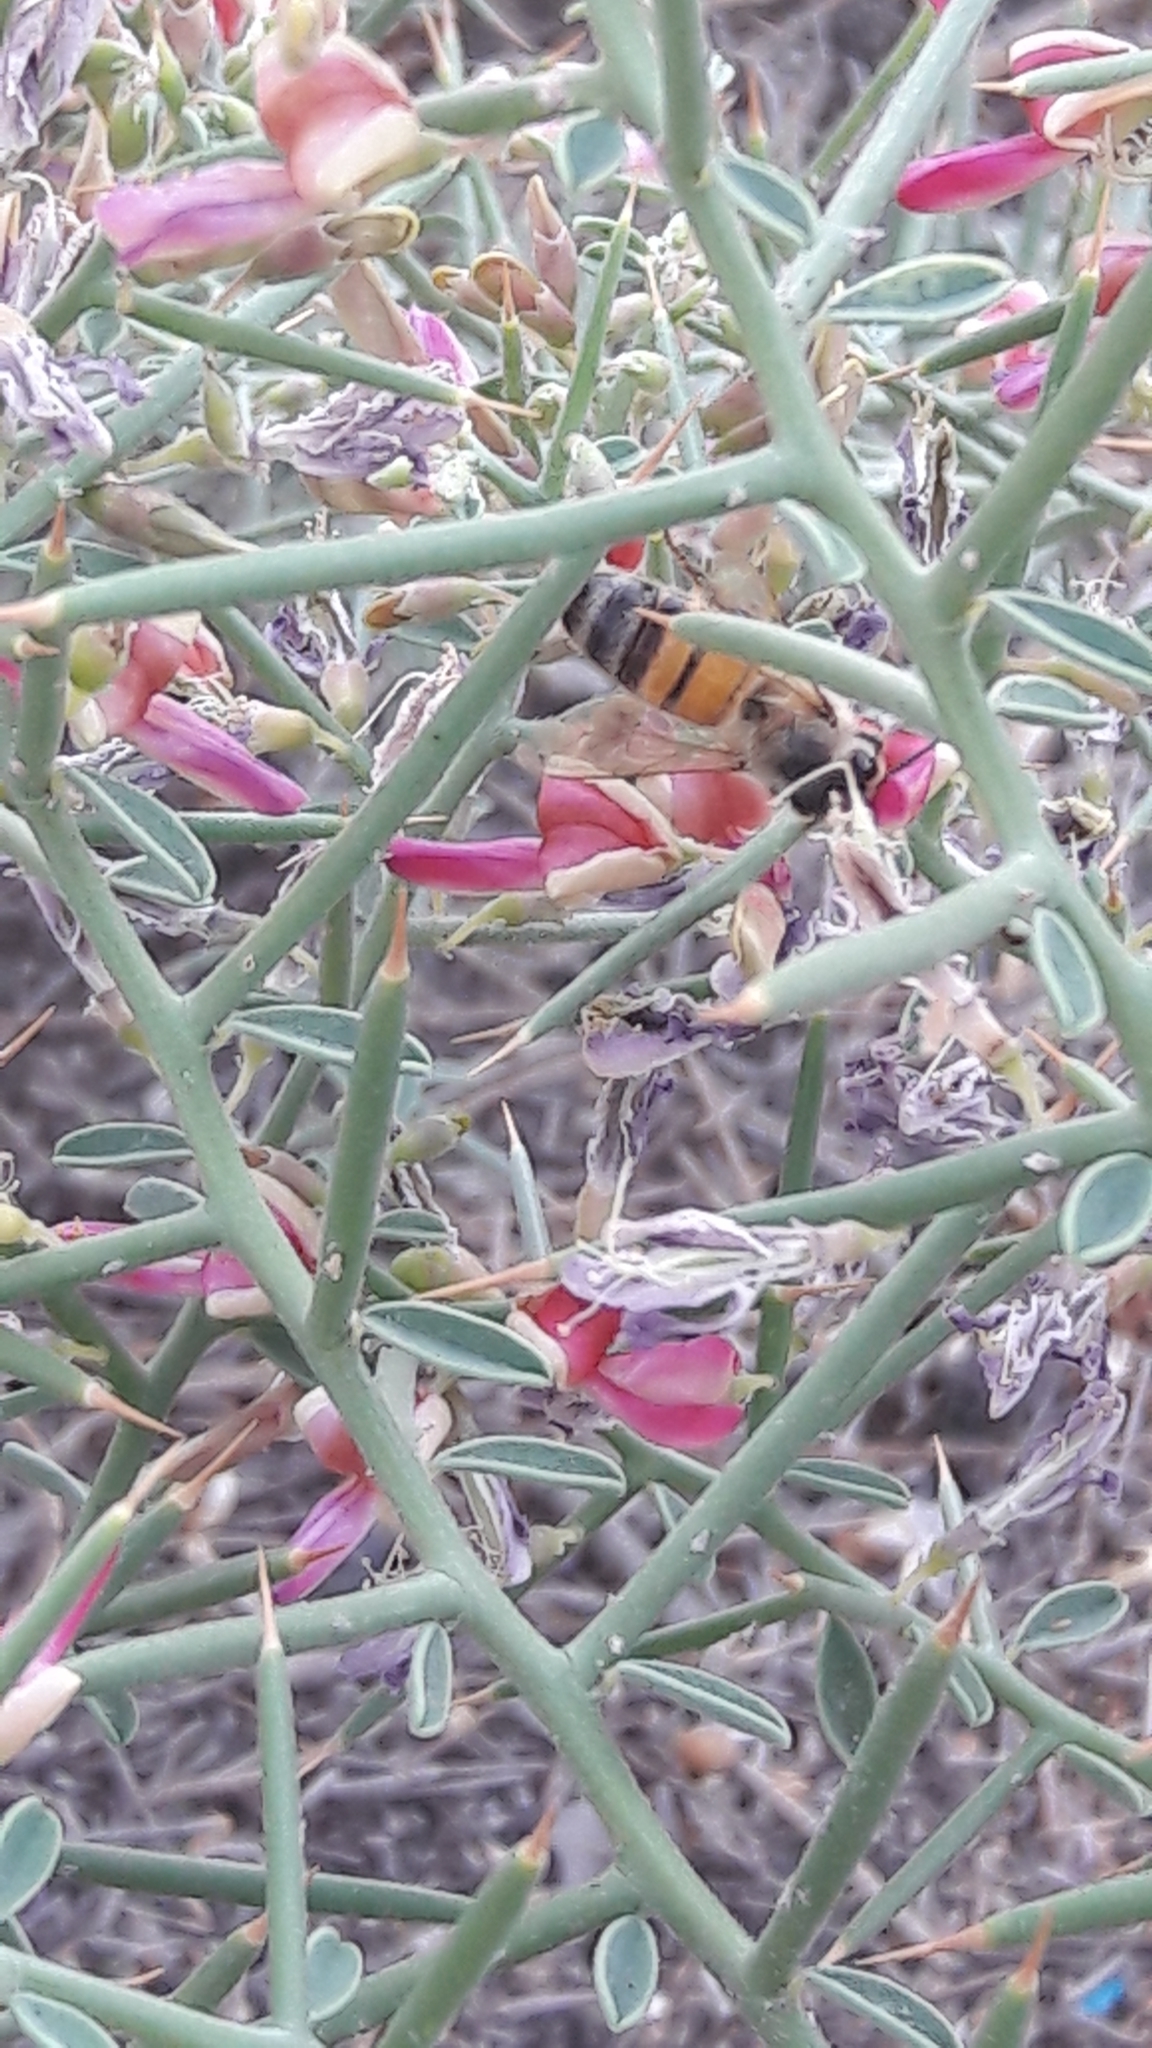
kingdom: Animalia
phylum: Arthropoda
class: Insecta
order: Hymenoptera
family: Apidae
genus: Apis
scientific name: Apis mellifera
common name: Honey bee
